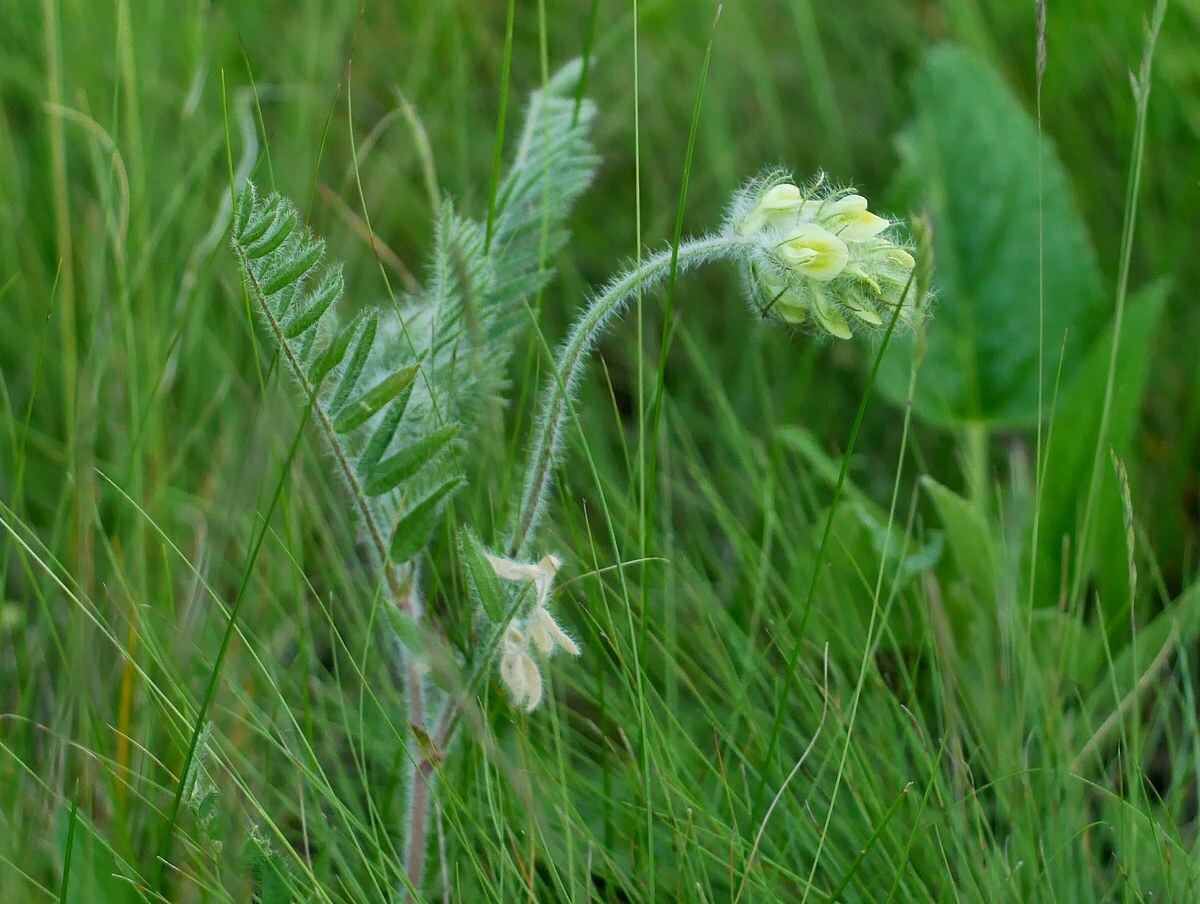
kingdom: Plantae
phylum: Tracheophyta
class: Magnoliopsida
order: Fabales
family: Fabaceae
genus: Oxytropis
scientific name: Oxytropis pilosa
